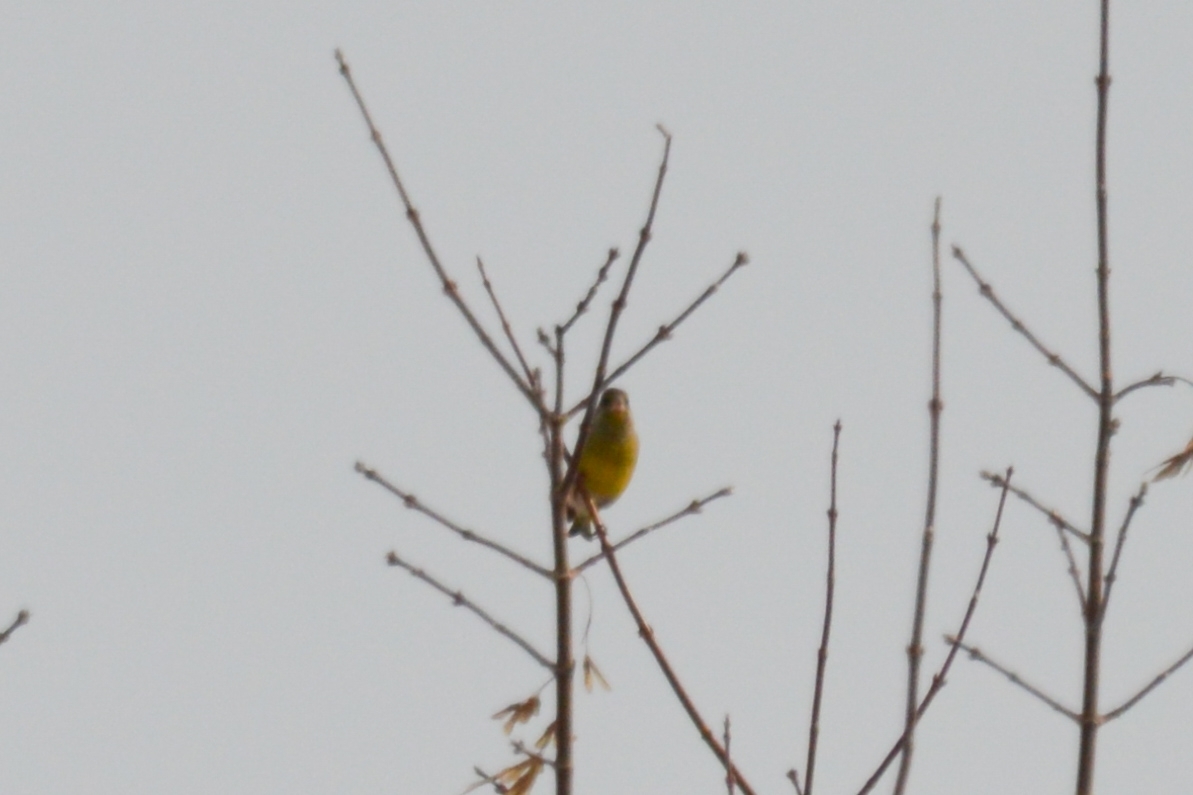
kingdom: Plantae
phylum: Tracheophyta
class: Liliopsida
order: Poales
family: Poaceae
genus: Chloris
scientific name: Chloris chloris
